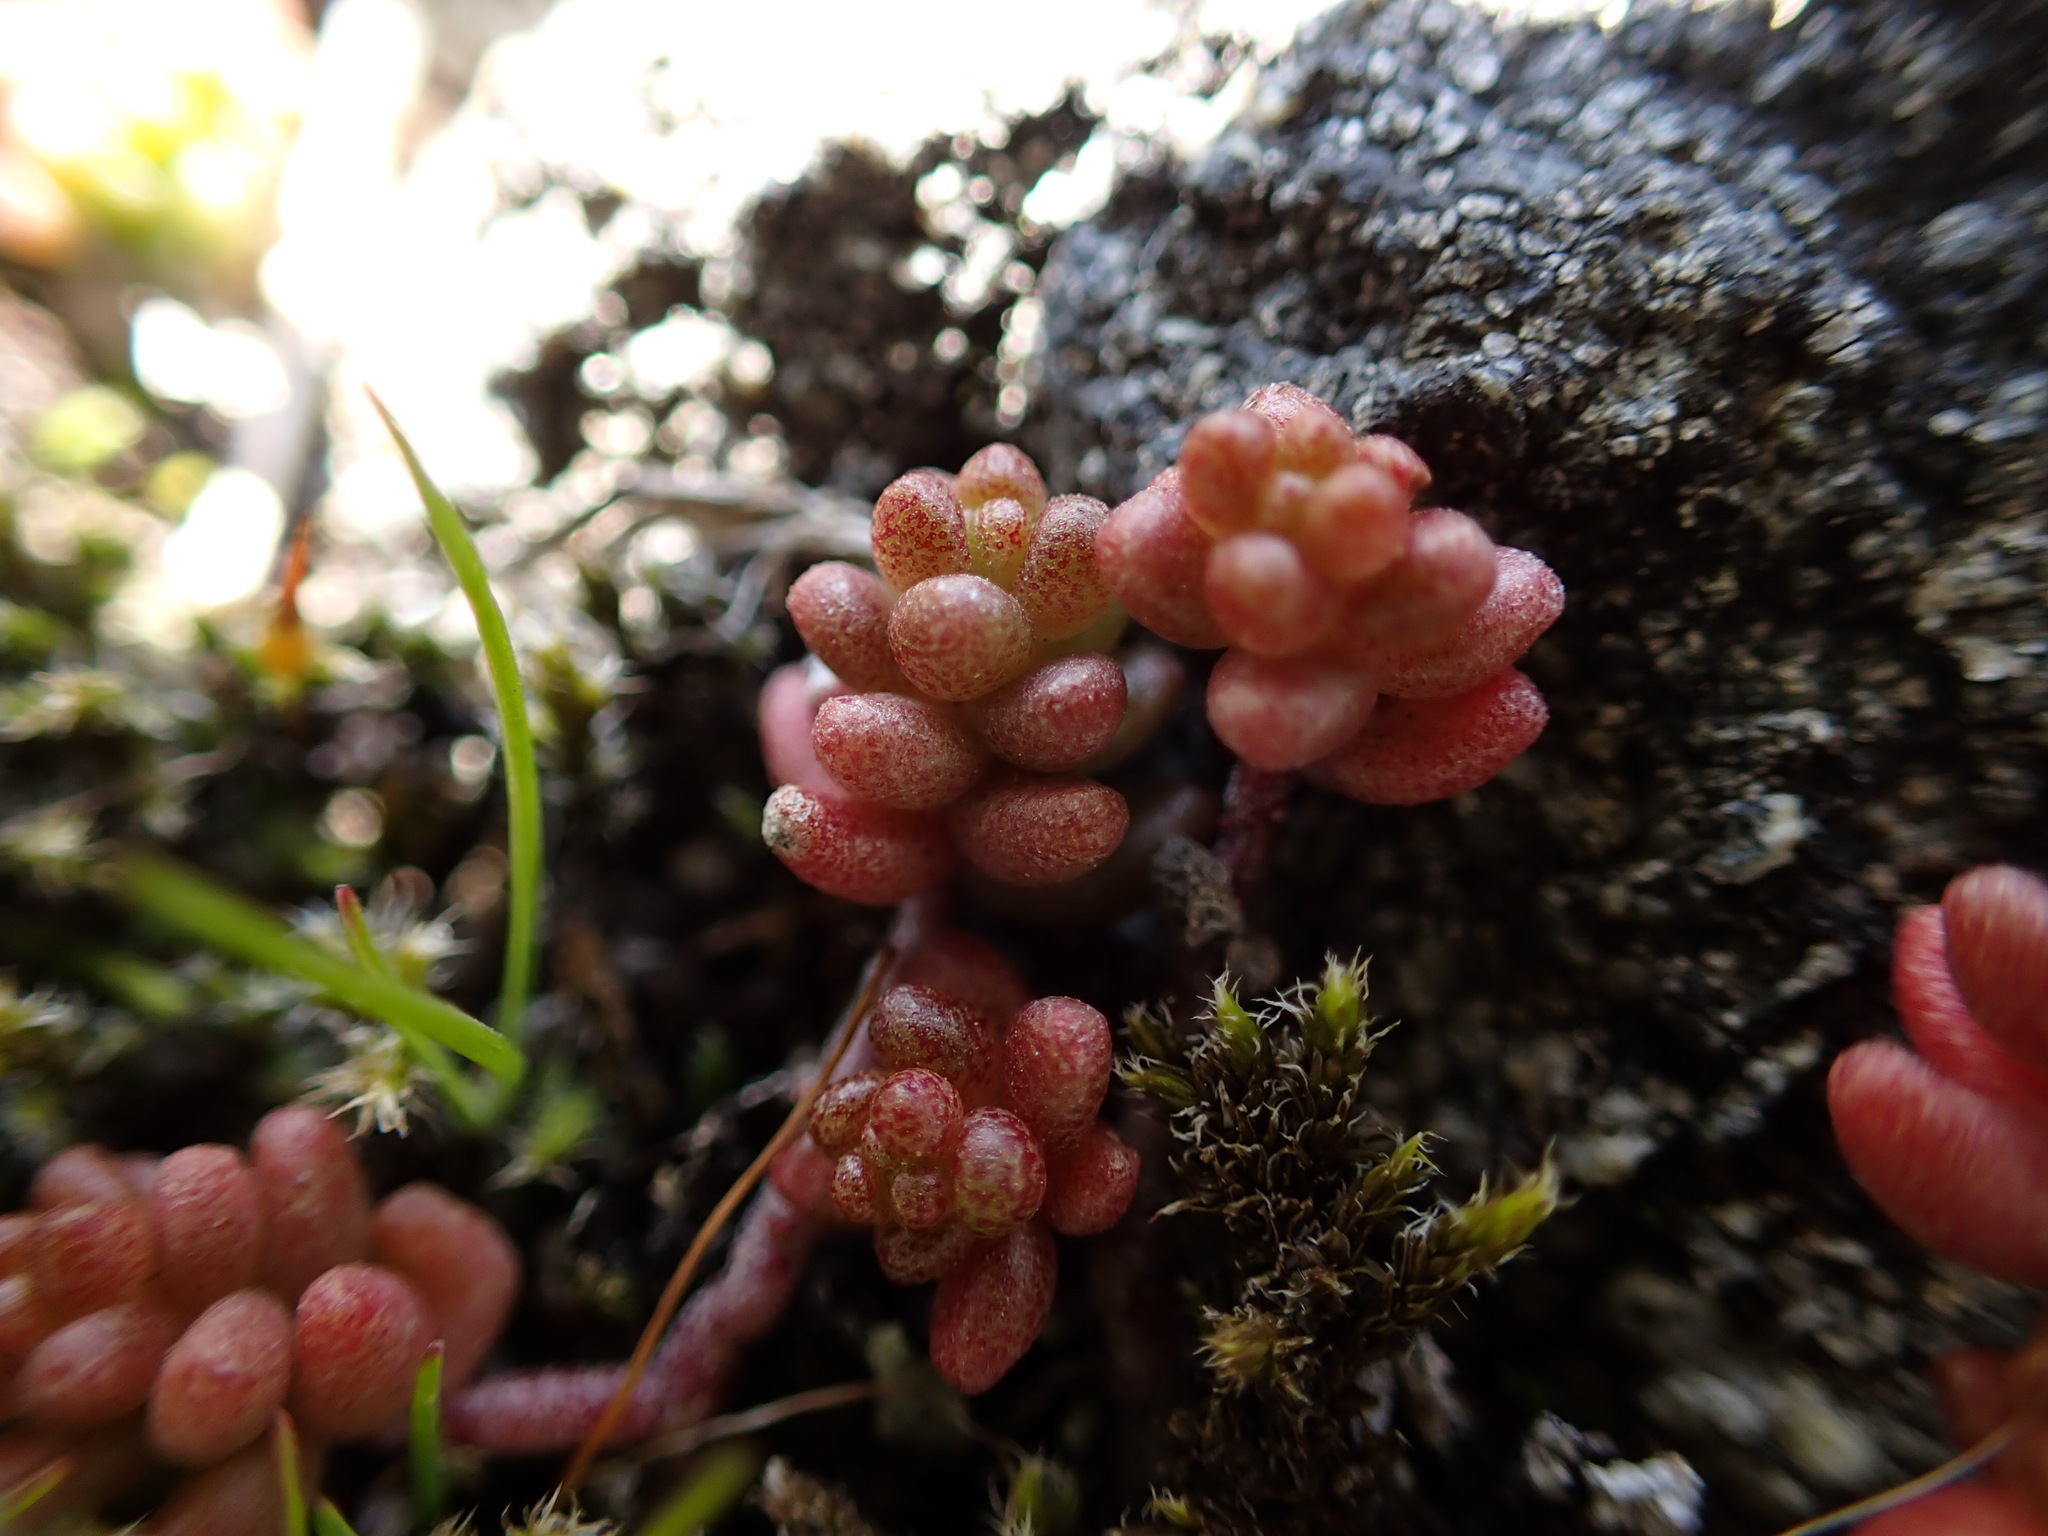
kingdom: Plantae
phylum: Tracheophyta
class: Magnoliopsida
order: Saxifragales
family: Crassulaceae
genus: Sedum
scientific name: Sedum album
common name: White stonecrop
